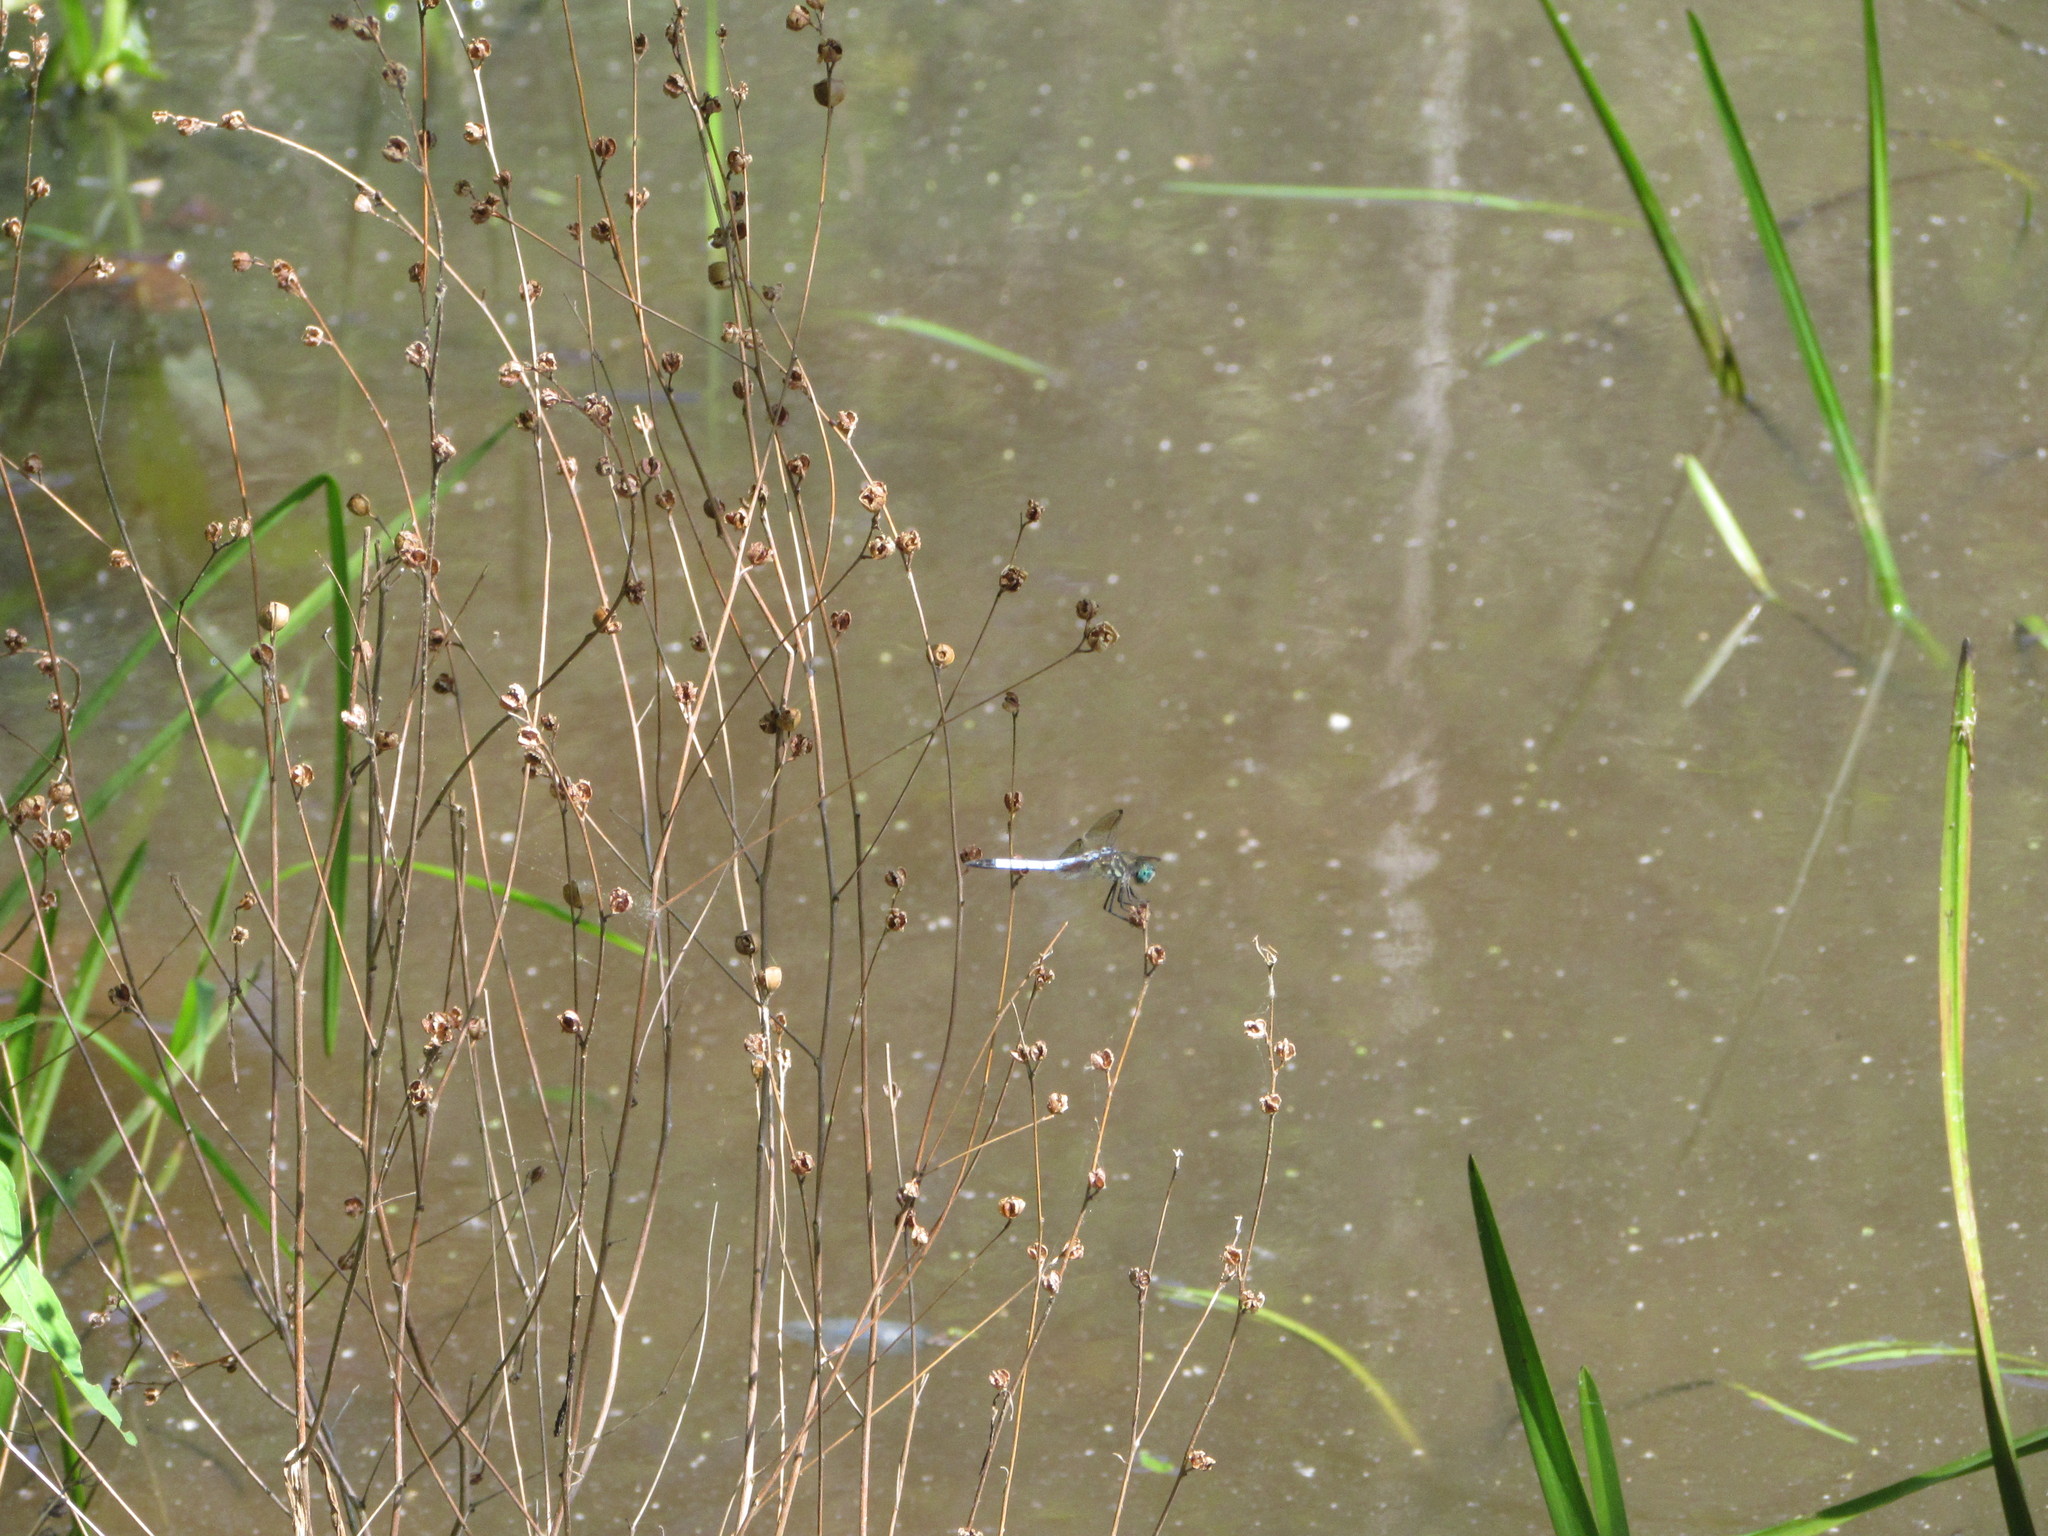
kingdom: Animalia
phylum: Arthropoda
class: Insecta
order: Odonata
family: Libellulidae
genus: Pachydiplax
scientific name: Pachydiplax longipennis
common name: Blue dasher
